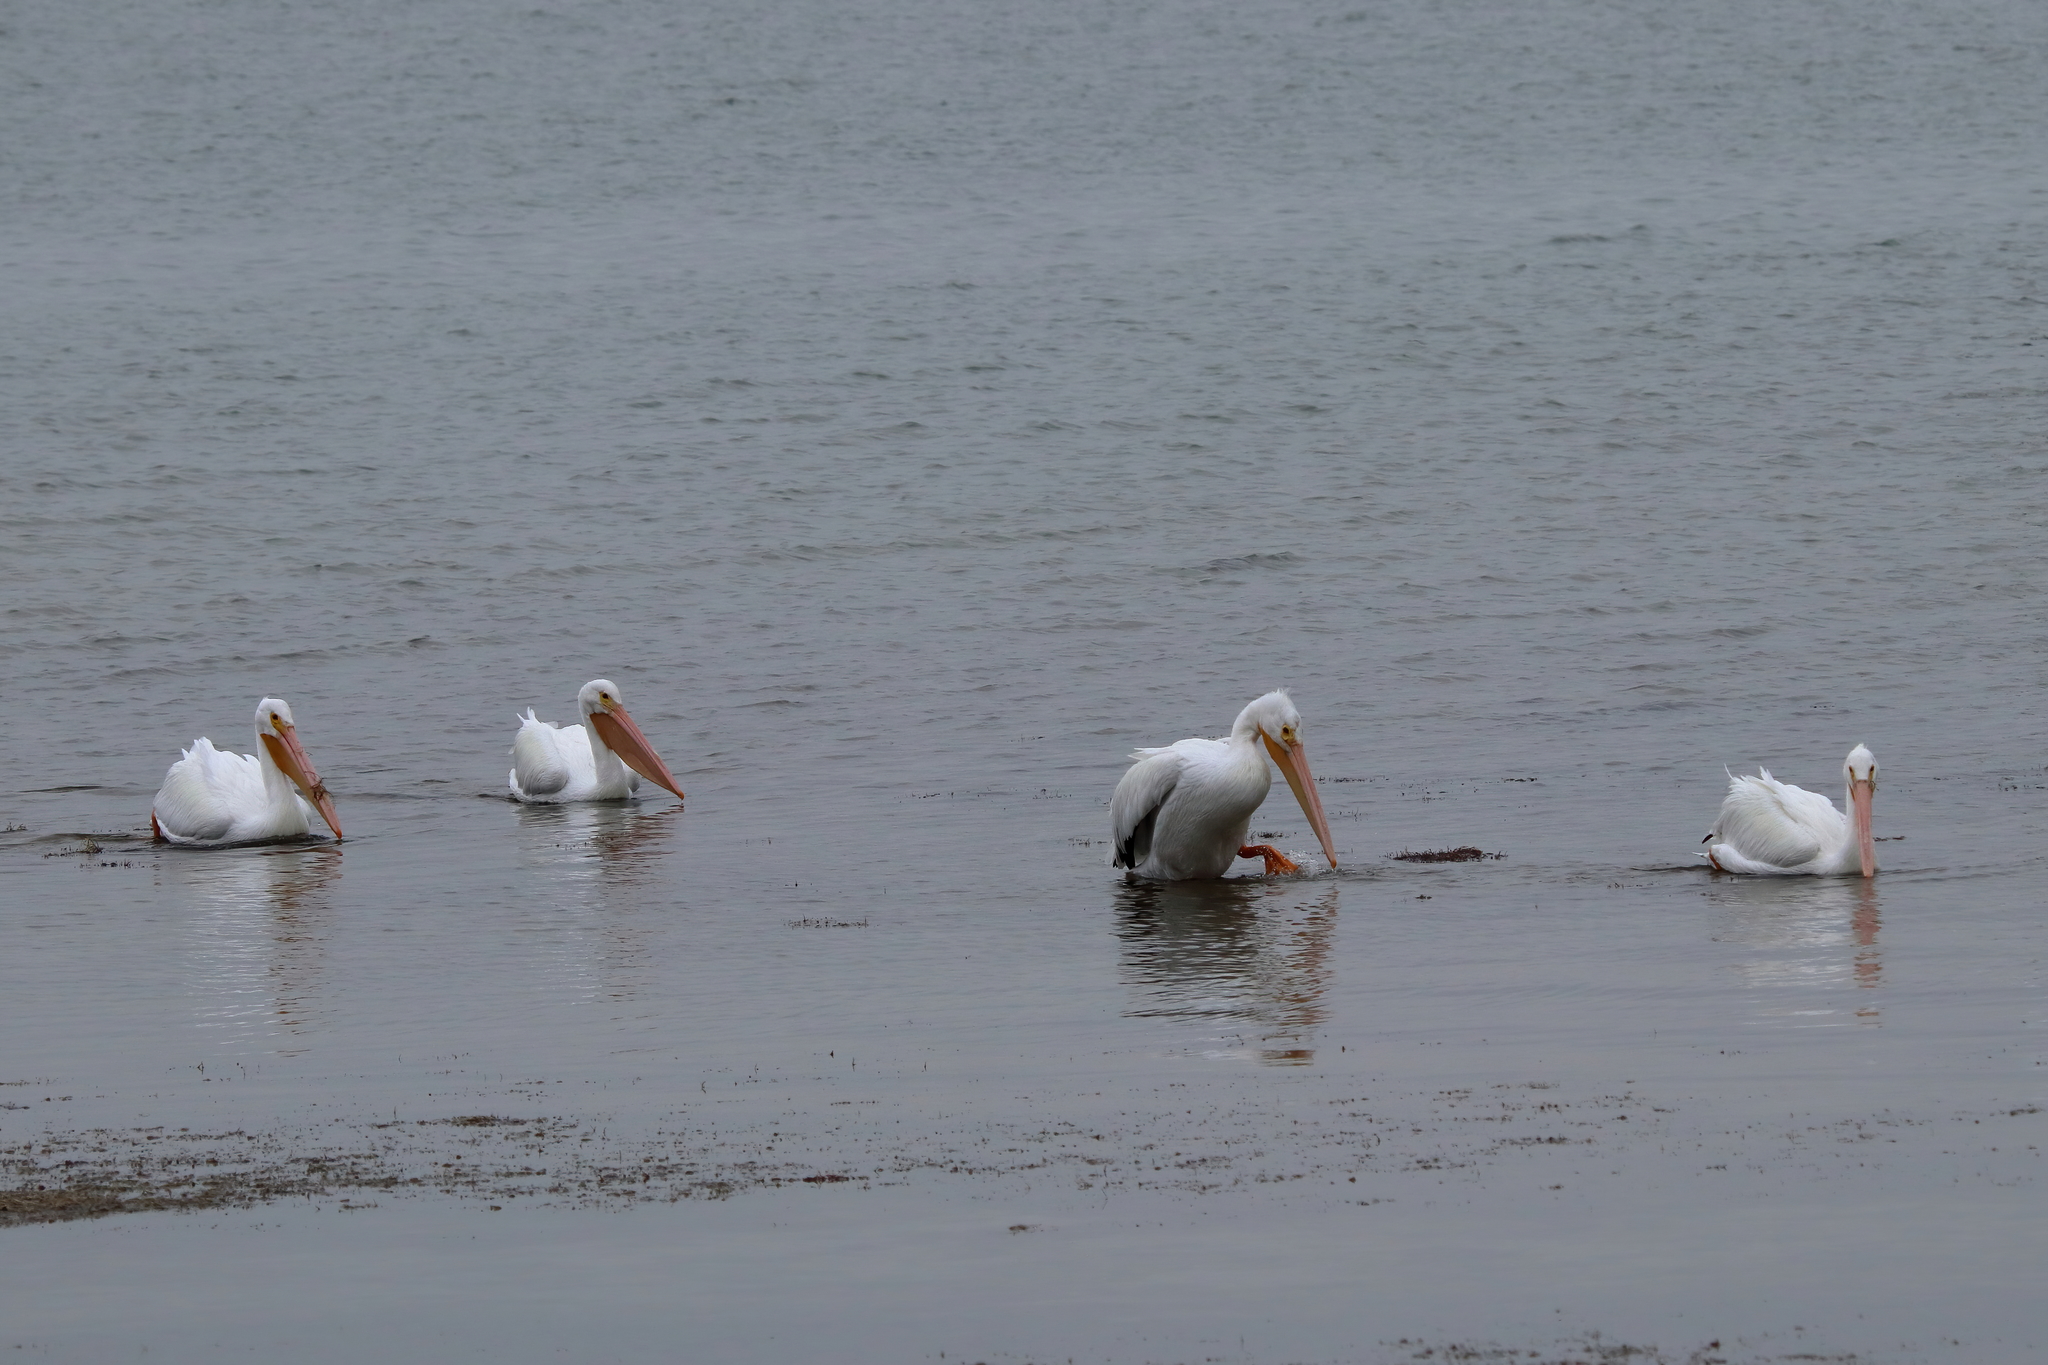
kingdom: Animalia
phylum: Chordata
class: Aves
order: Pelecaniformes
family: Pelecanidae
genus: Pelecanus
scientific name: Pelecanus erythrorhynchos
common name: American white pelican
